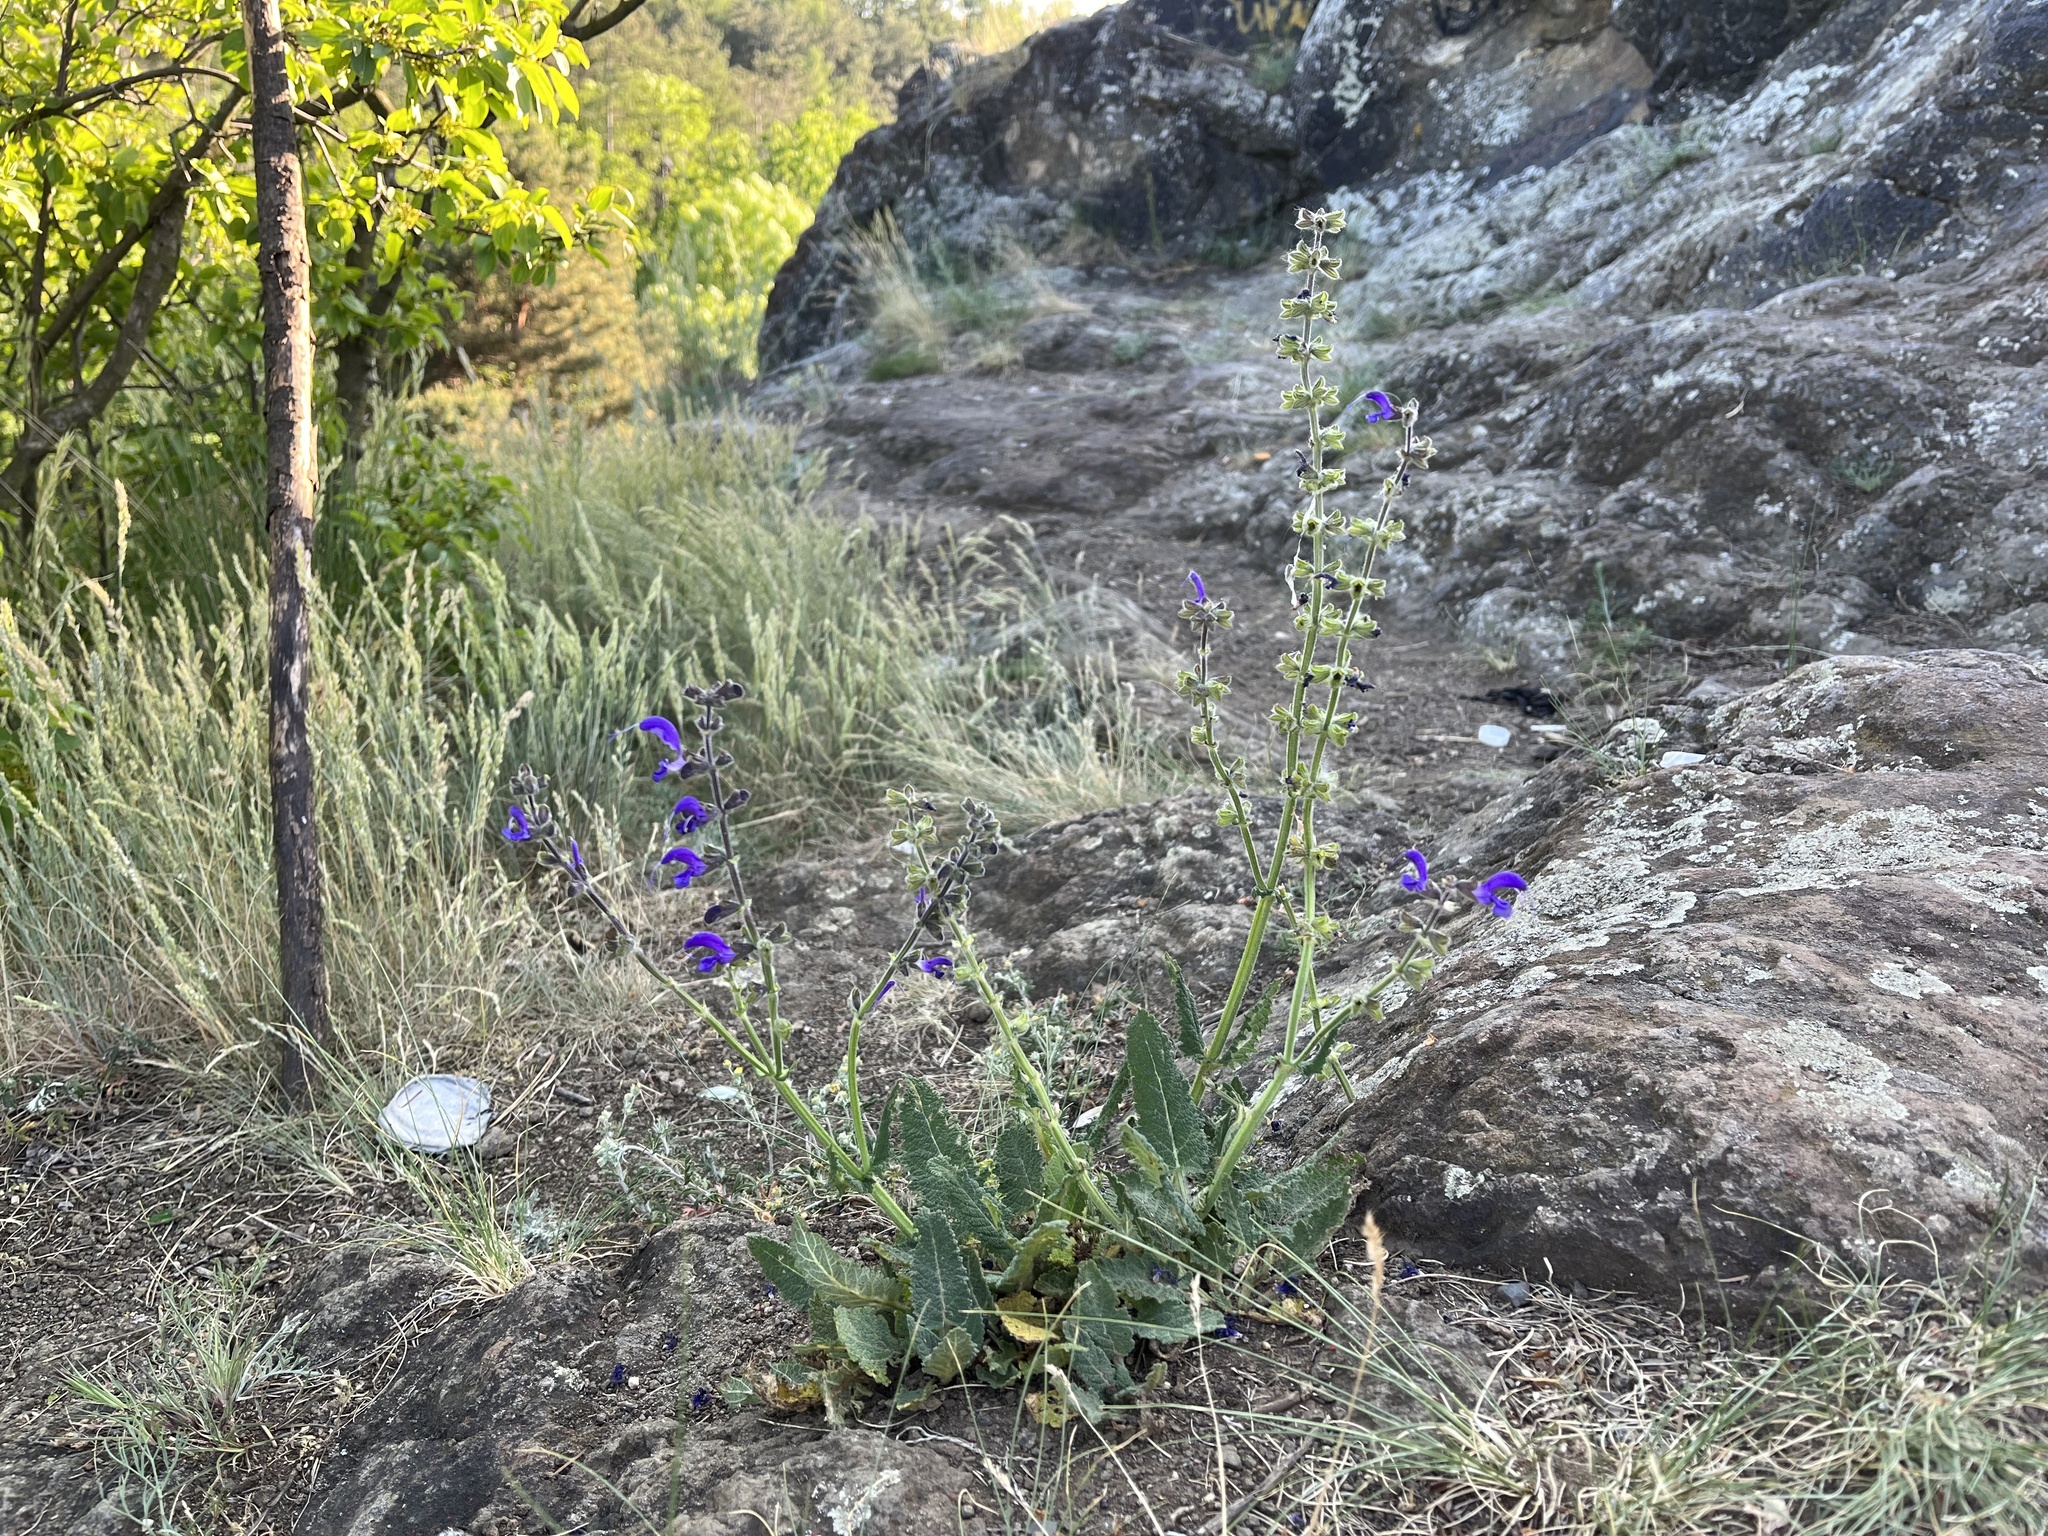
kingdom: Plantae
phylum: Tracheophyta
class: Magnoliopsida
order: Lamiales
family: Lamiaceae
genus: Salvia
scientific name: Salvia pratensis
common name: Meadow sage
